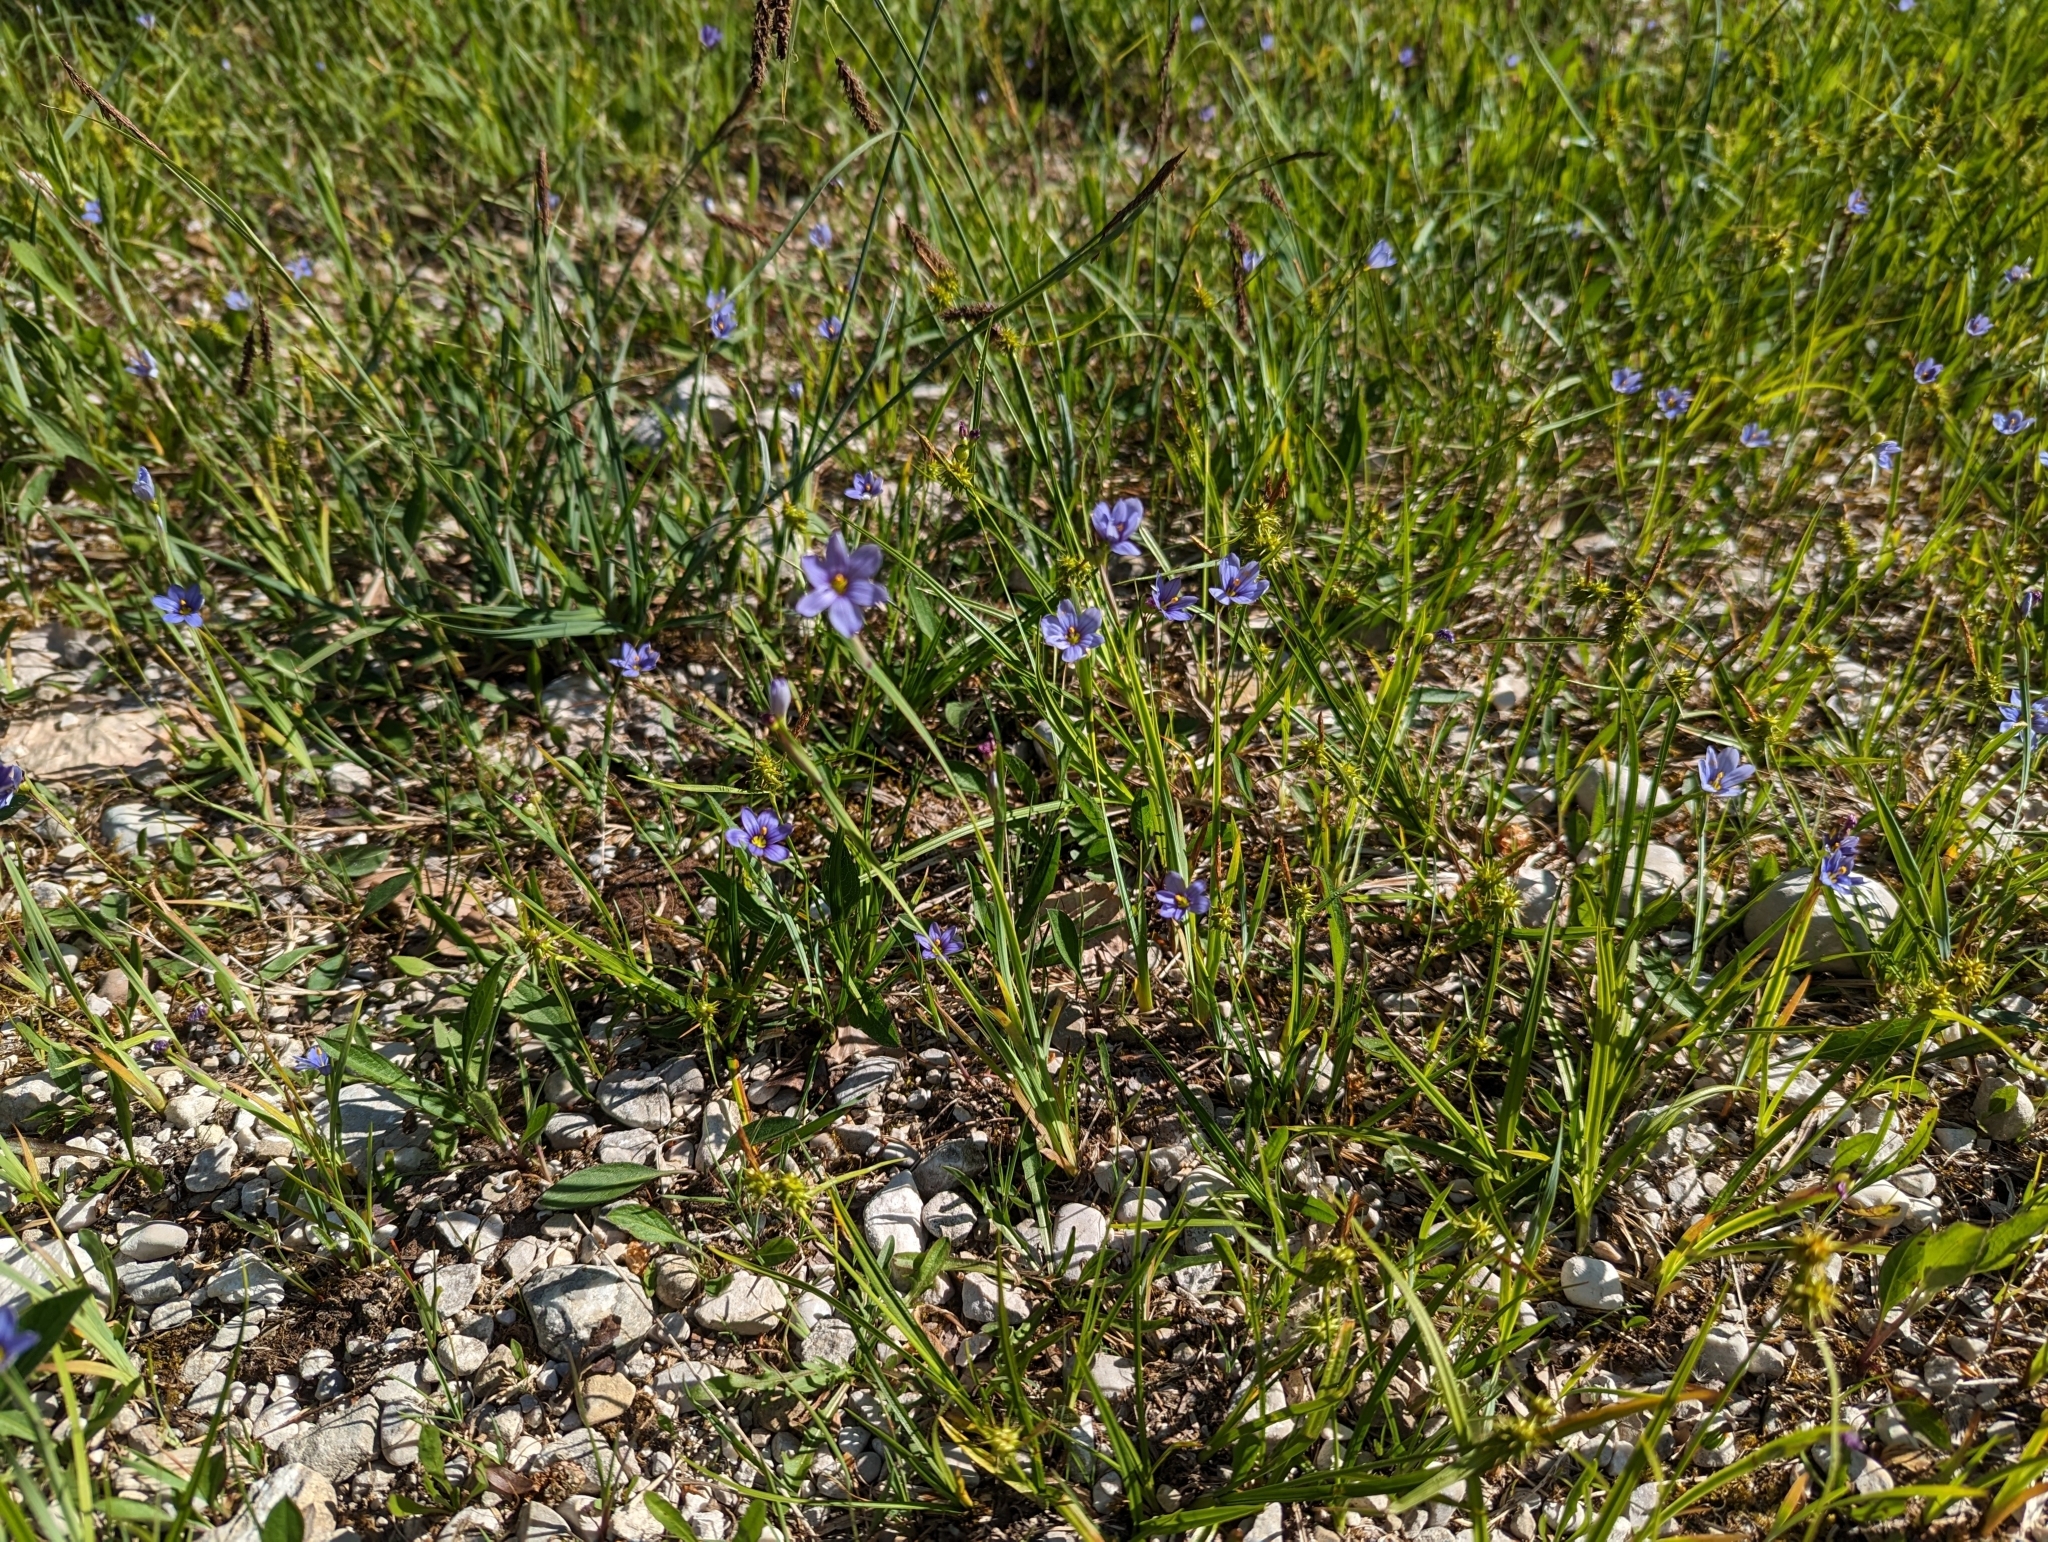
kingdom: Plantae
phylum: Tracheophyta
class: Liliopsida
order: Asparagales
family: Iridaceae
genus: Sisyrinchium
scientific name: Sisyrinchium montanum
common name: American blue-eyed-grass
